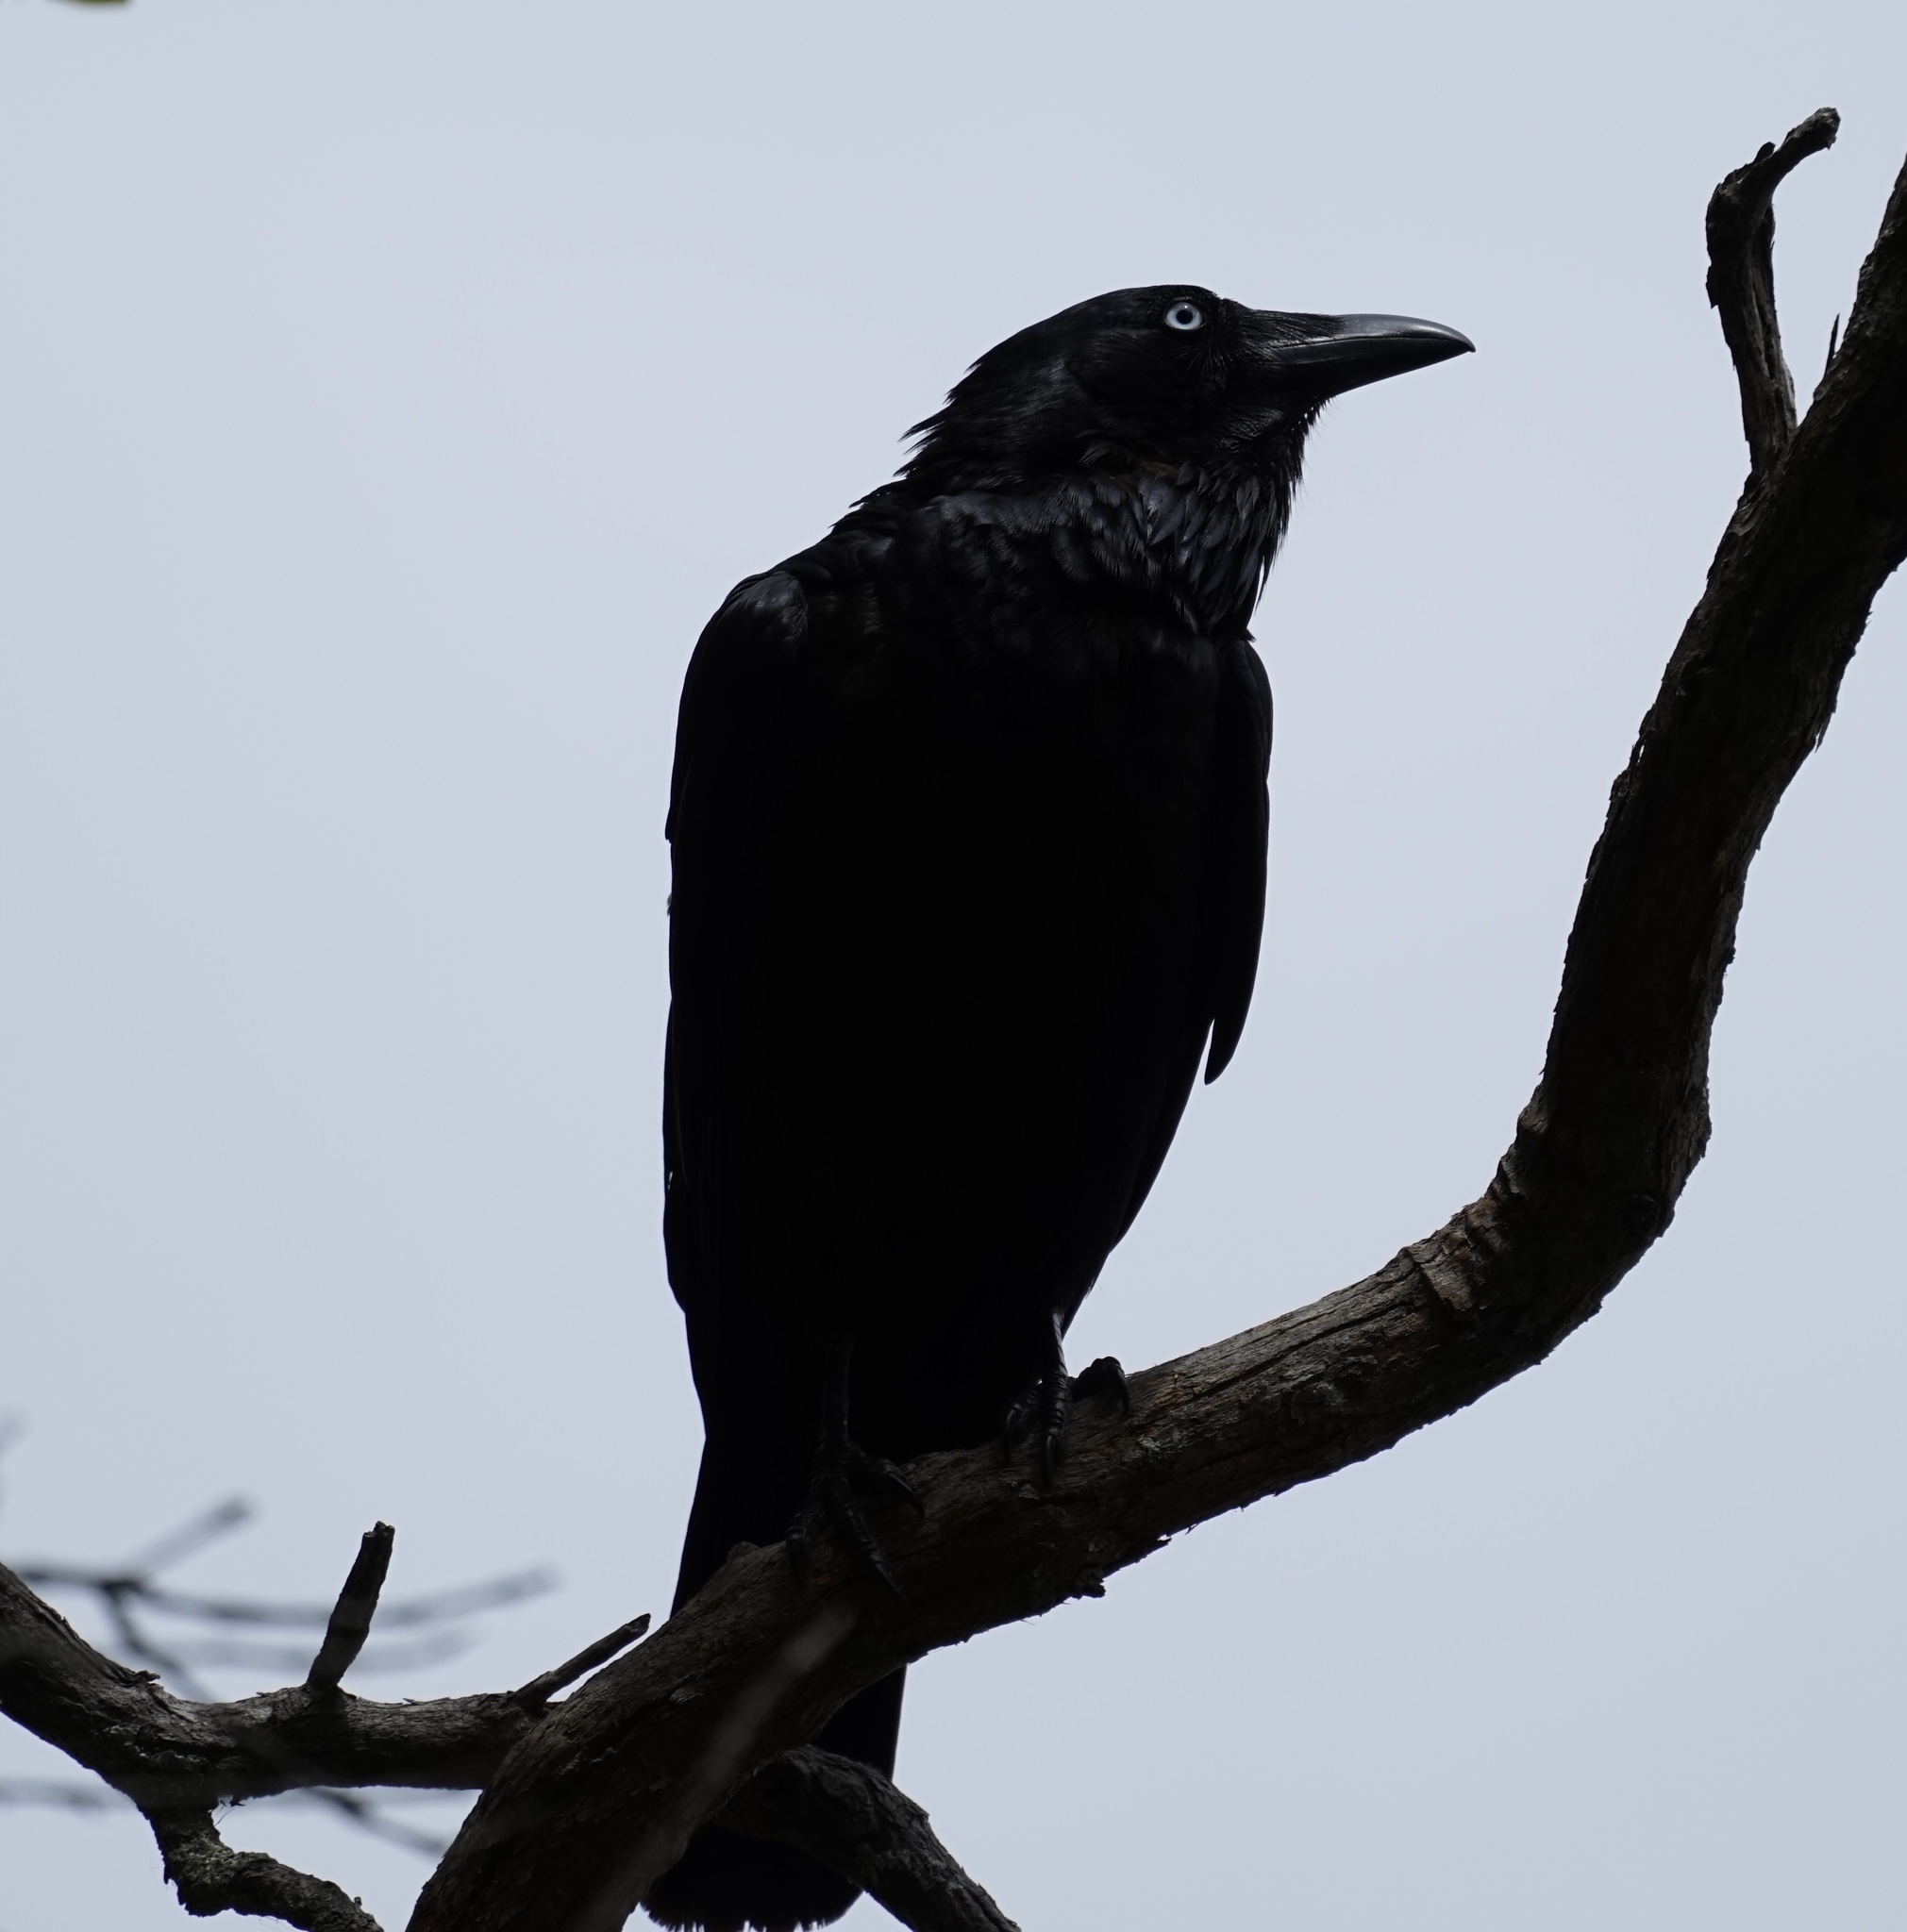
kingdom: Animalia
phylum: Chordata
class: Aves
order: Passeriformes
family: Corvidae
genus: Corvus
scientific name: Corvus coronoides
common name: Australian raven
